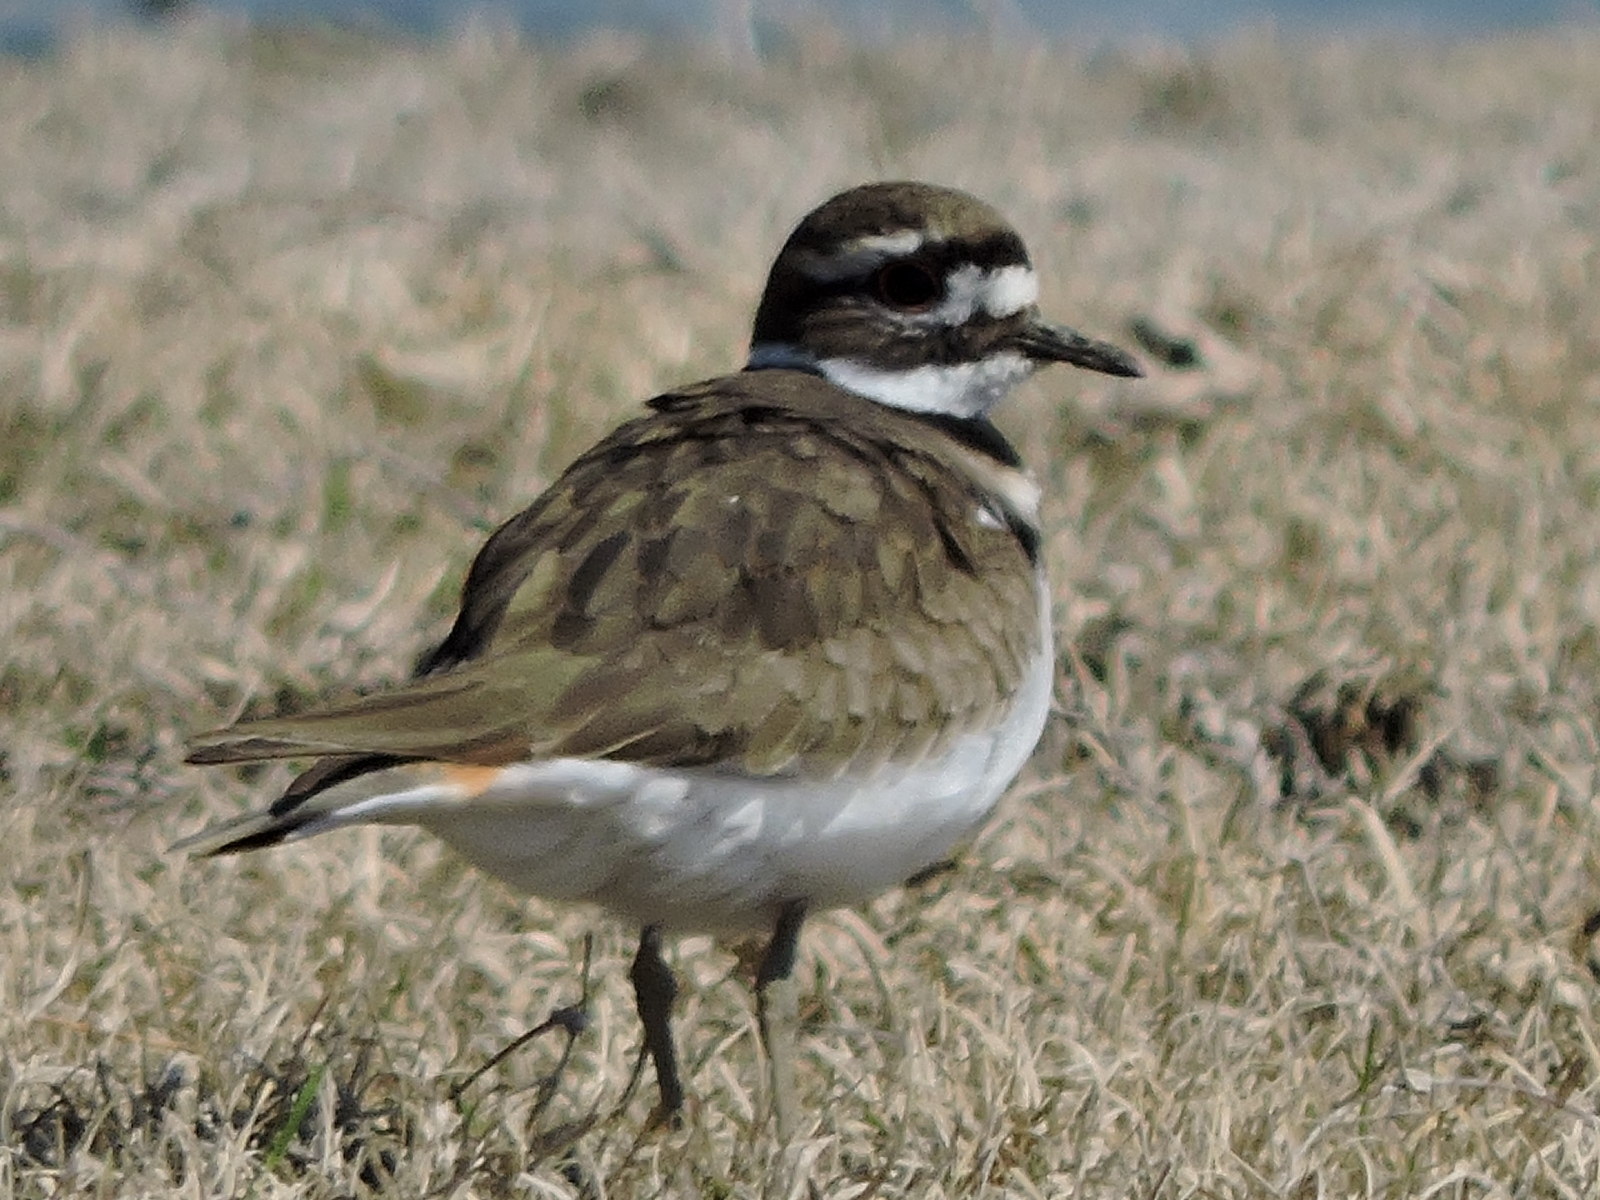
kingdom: Animalia
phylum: Chordata
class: Aves
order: Charadriiformes
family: Charadriidae
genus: Charadrius
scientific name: Charadrius vociferus
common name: Killdeer
